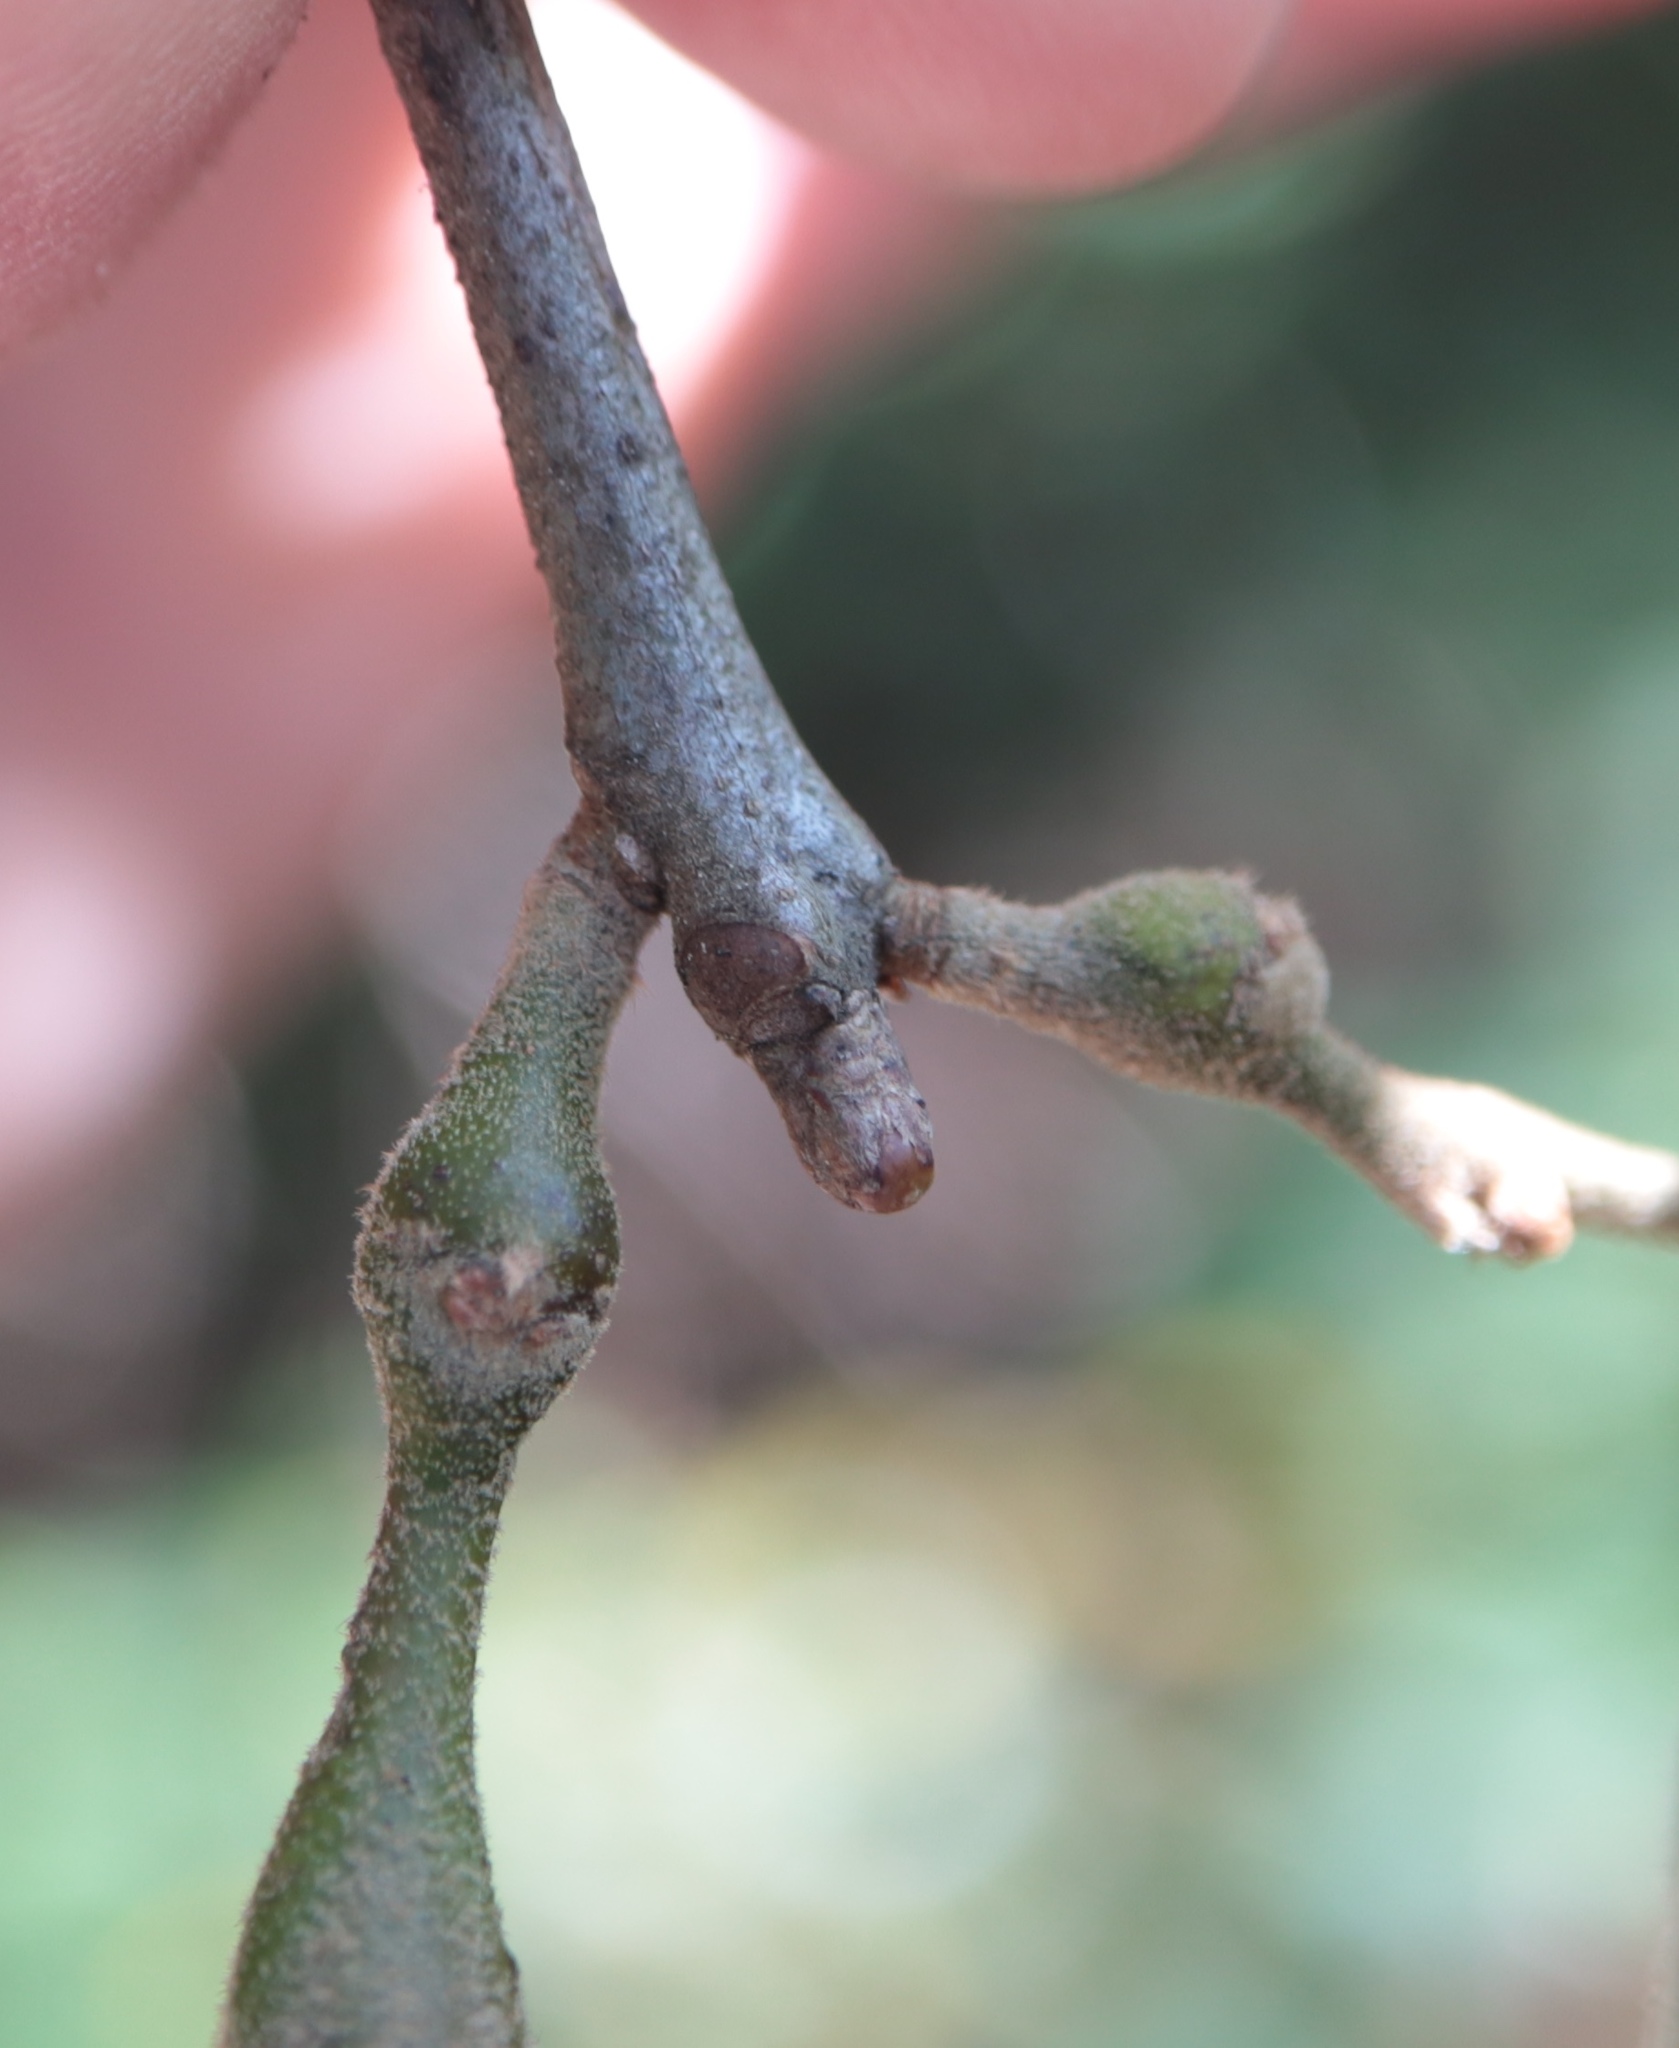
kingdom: Animalia
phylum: Arthropoda
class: Insecta
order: Hymenoptera
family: Cynipidae
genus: Callirhytis
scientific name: Callirhytis
